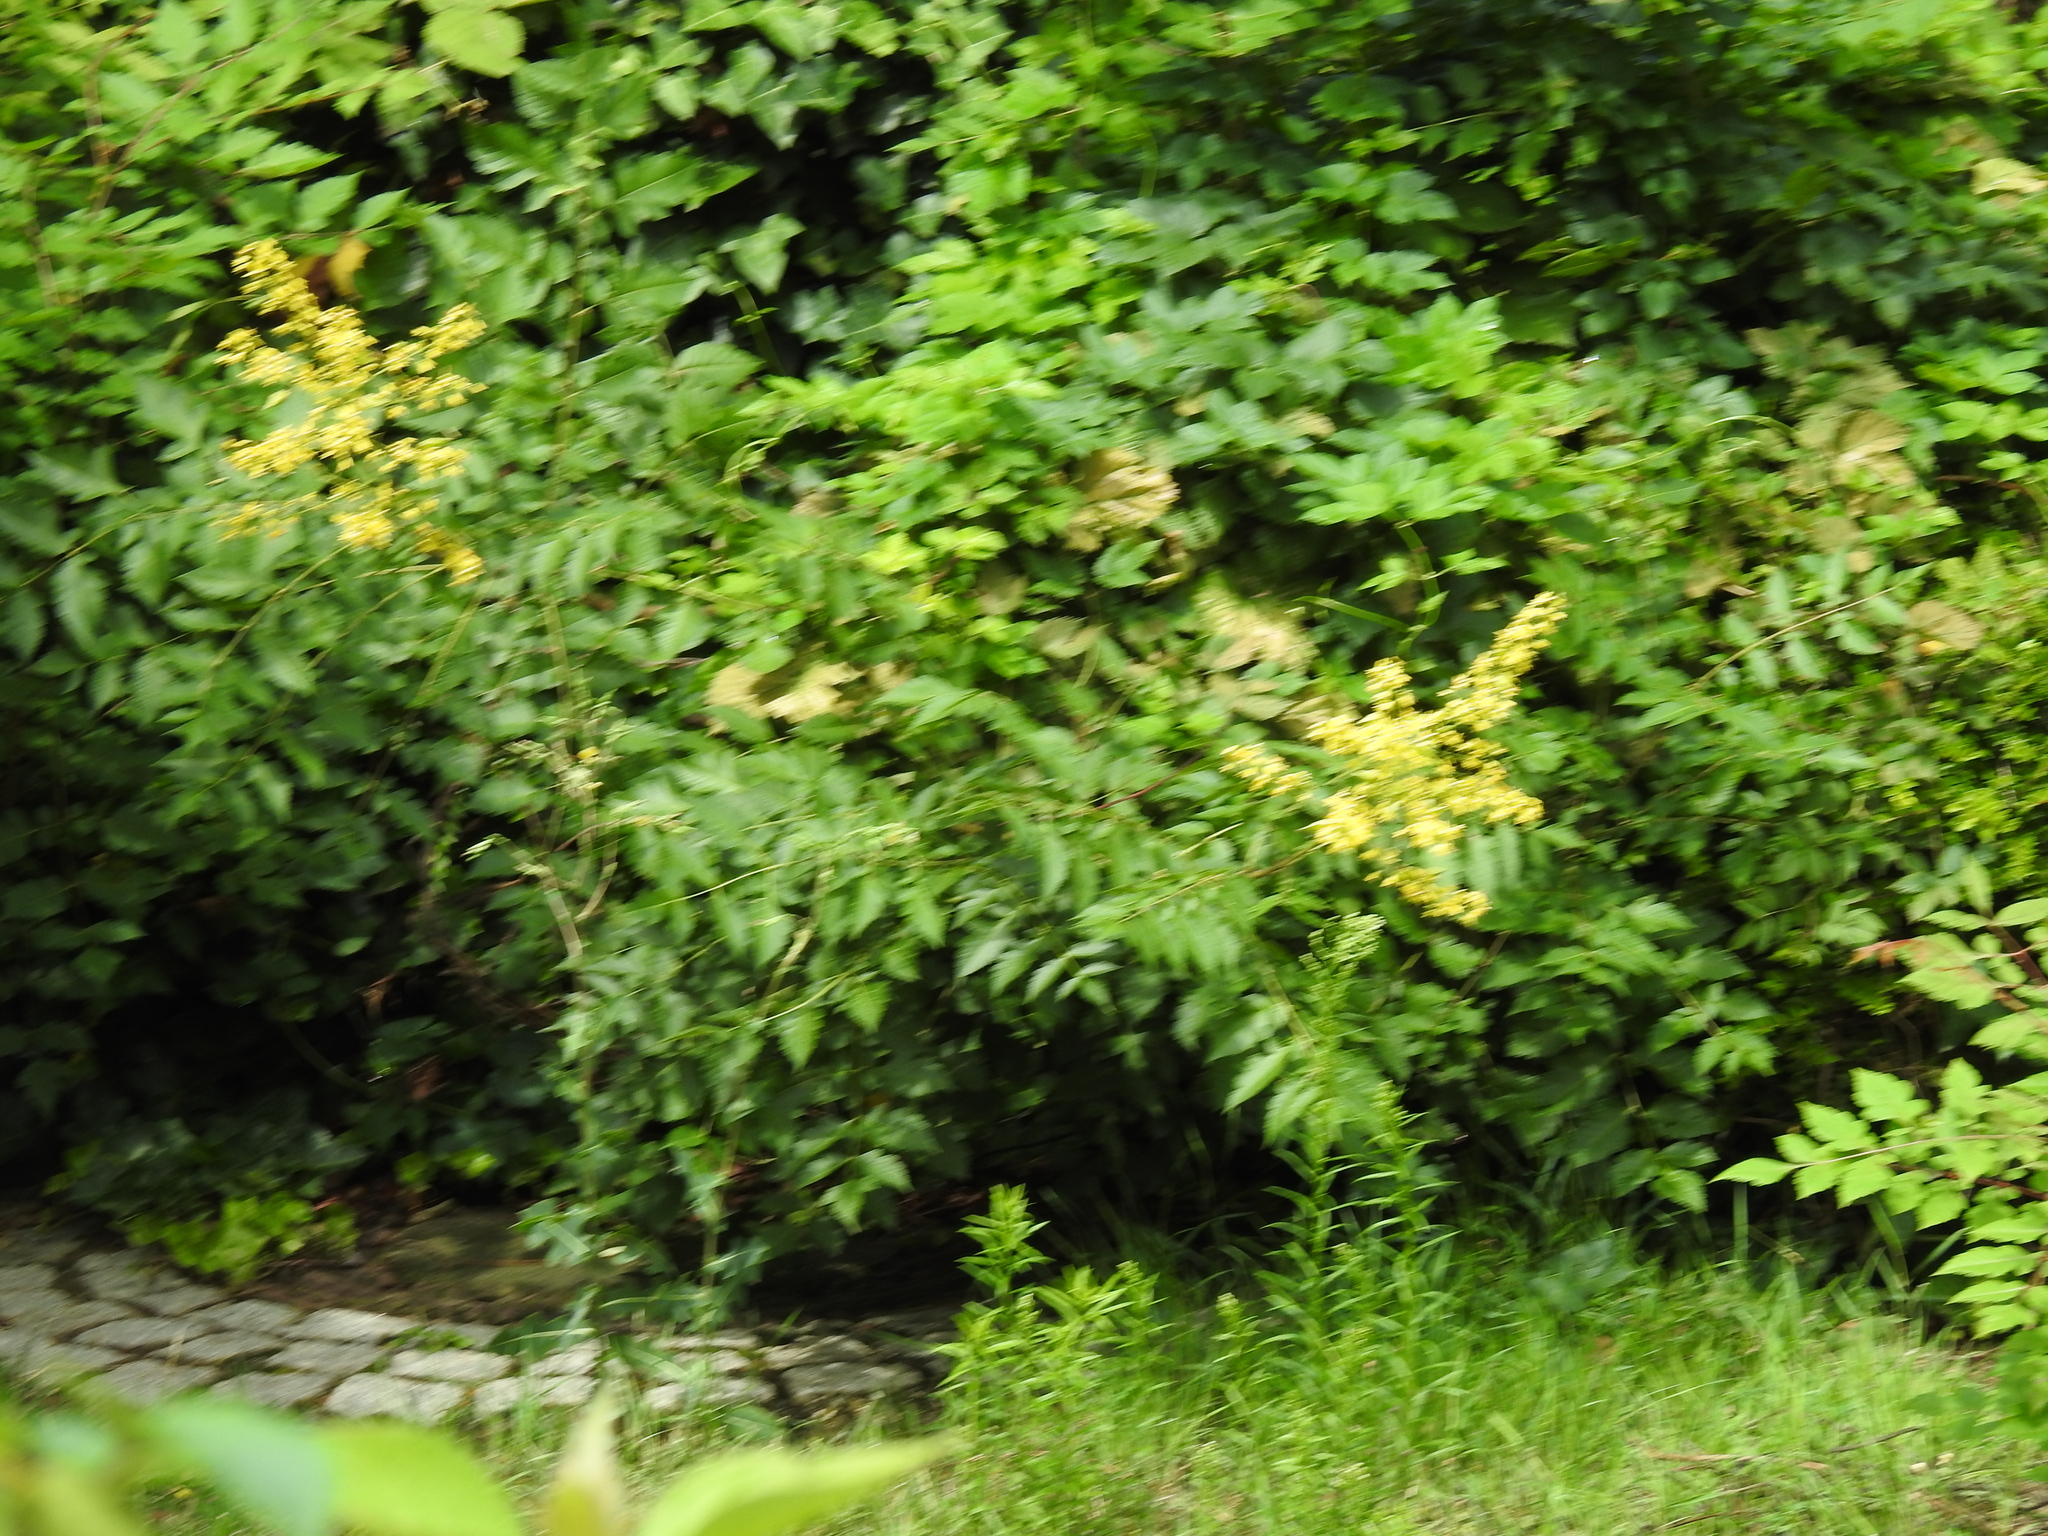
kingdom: Plantae
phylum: Tracheophyta
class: Magnoliopsida
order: Sapindales
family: Sapindaceae
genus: Koelreuteria
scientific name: Koelreuteria paniculata
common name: Pride-of-india
